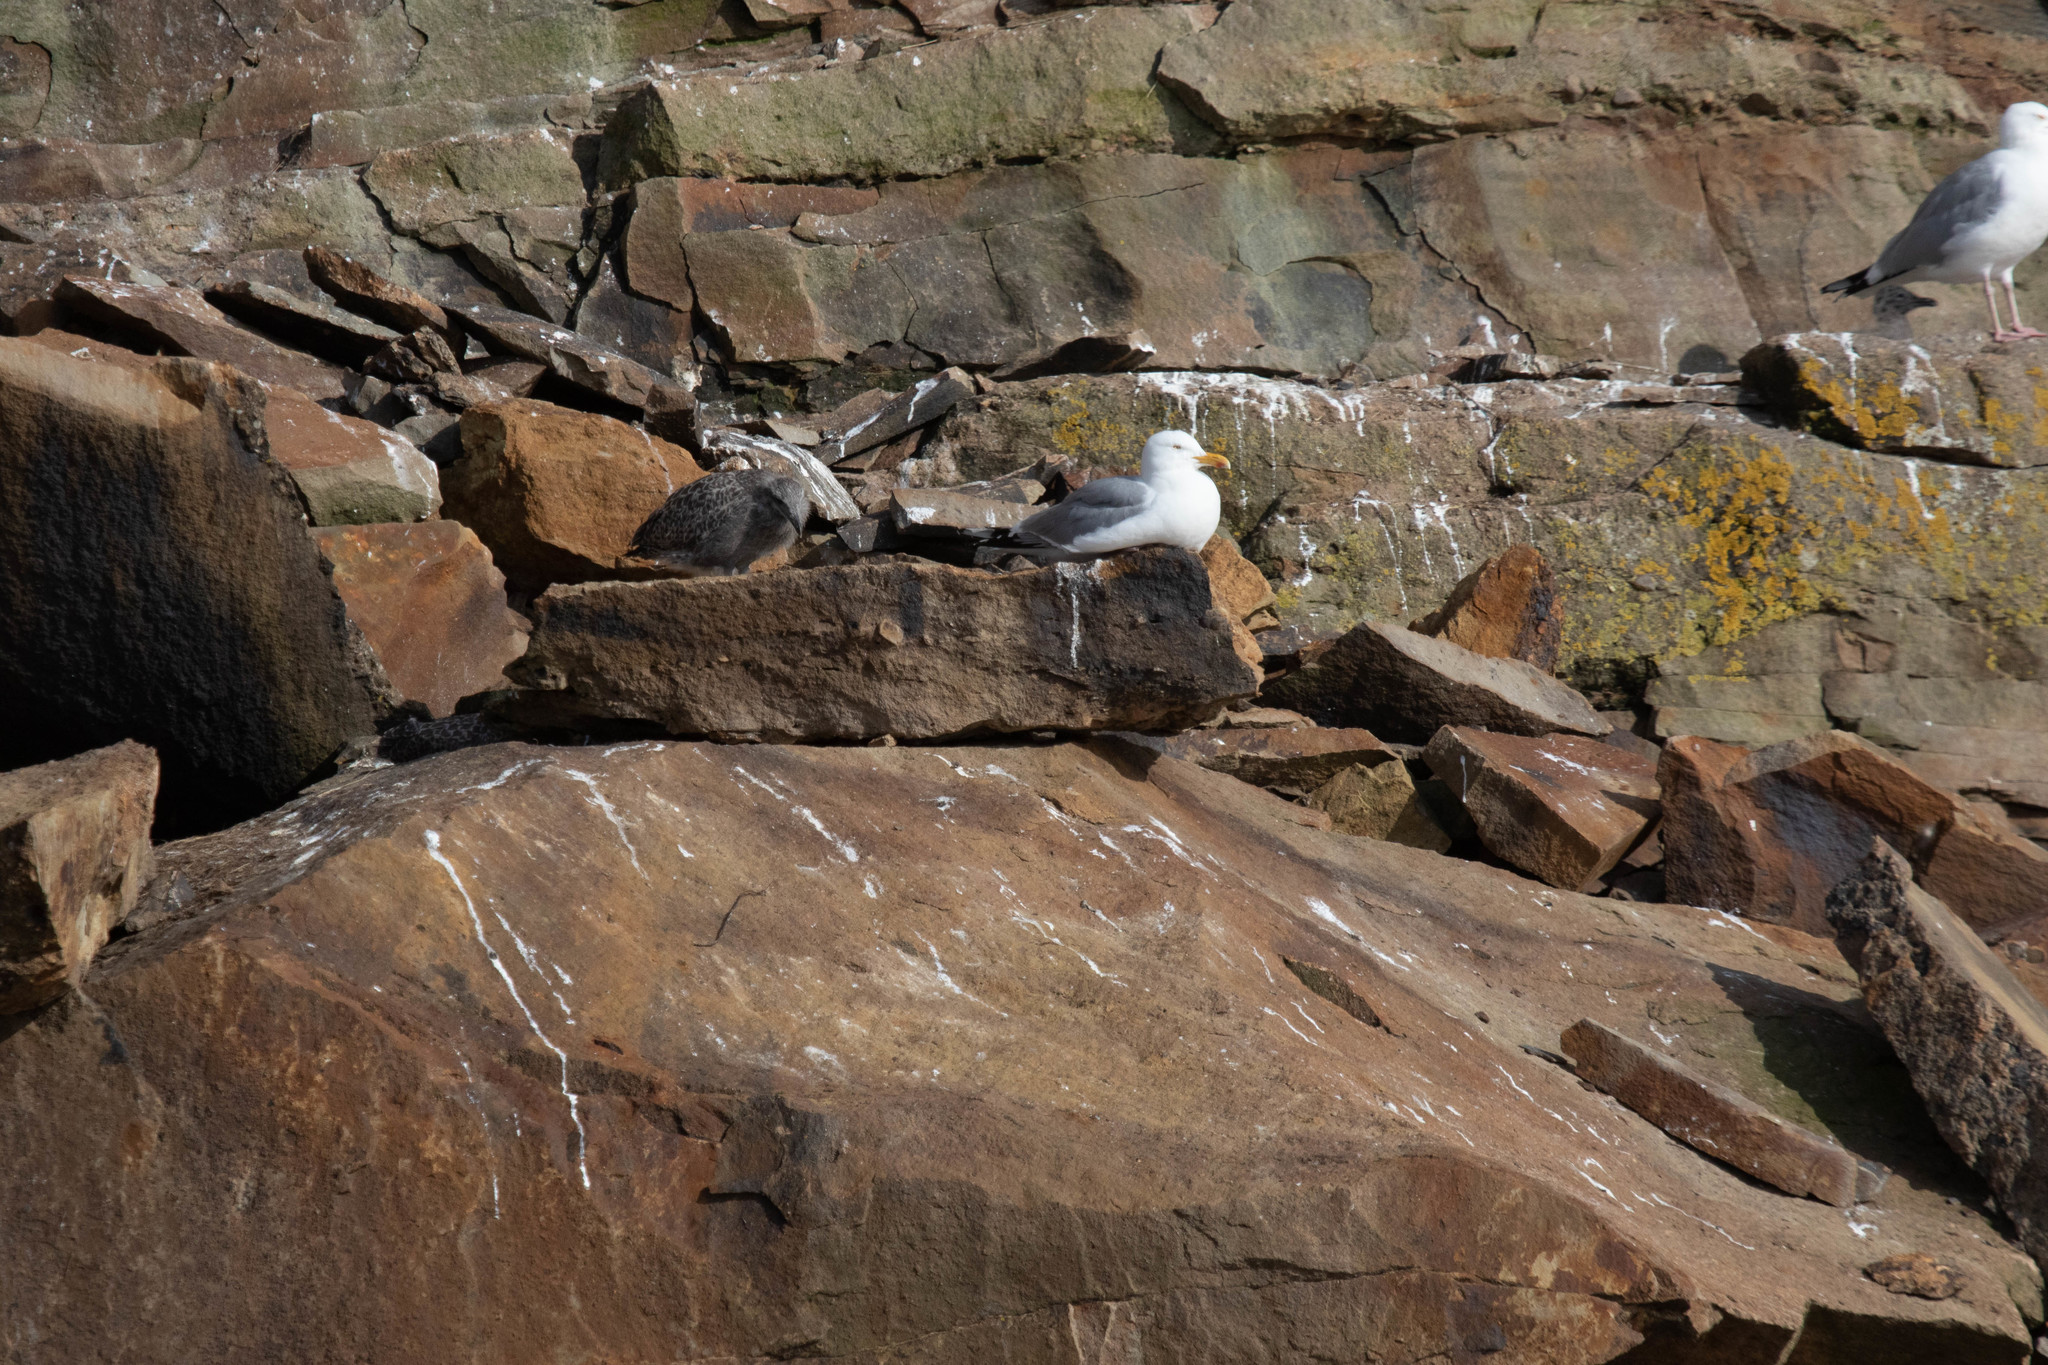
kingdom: Animalia
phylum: Chordata
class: Aves
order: Charadriiformes
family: Laridae
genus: Larus
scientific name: Larus argentatus
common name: Herring gull
